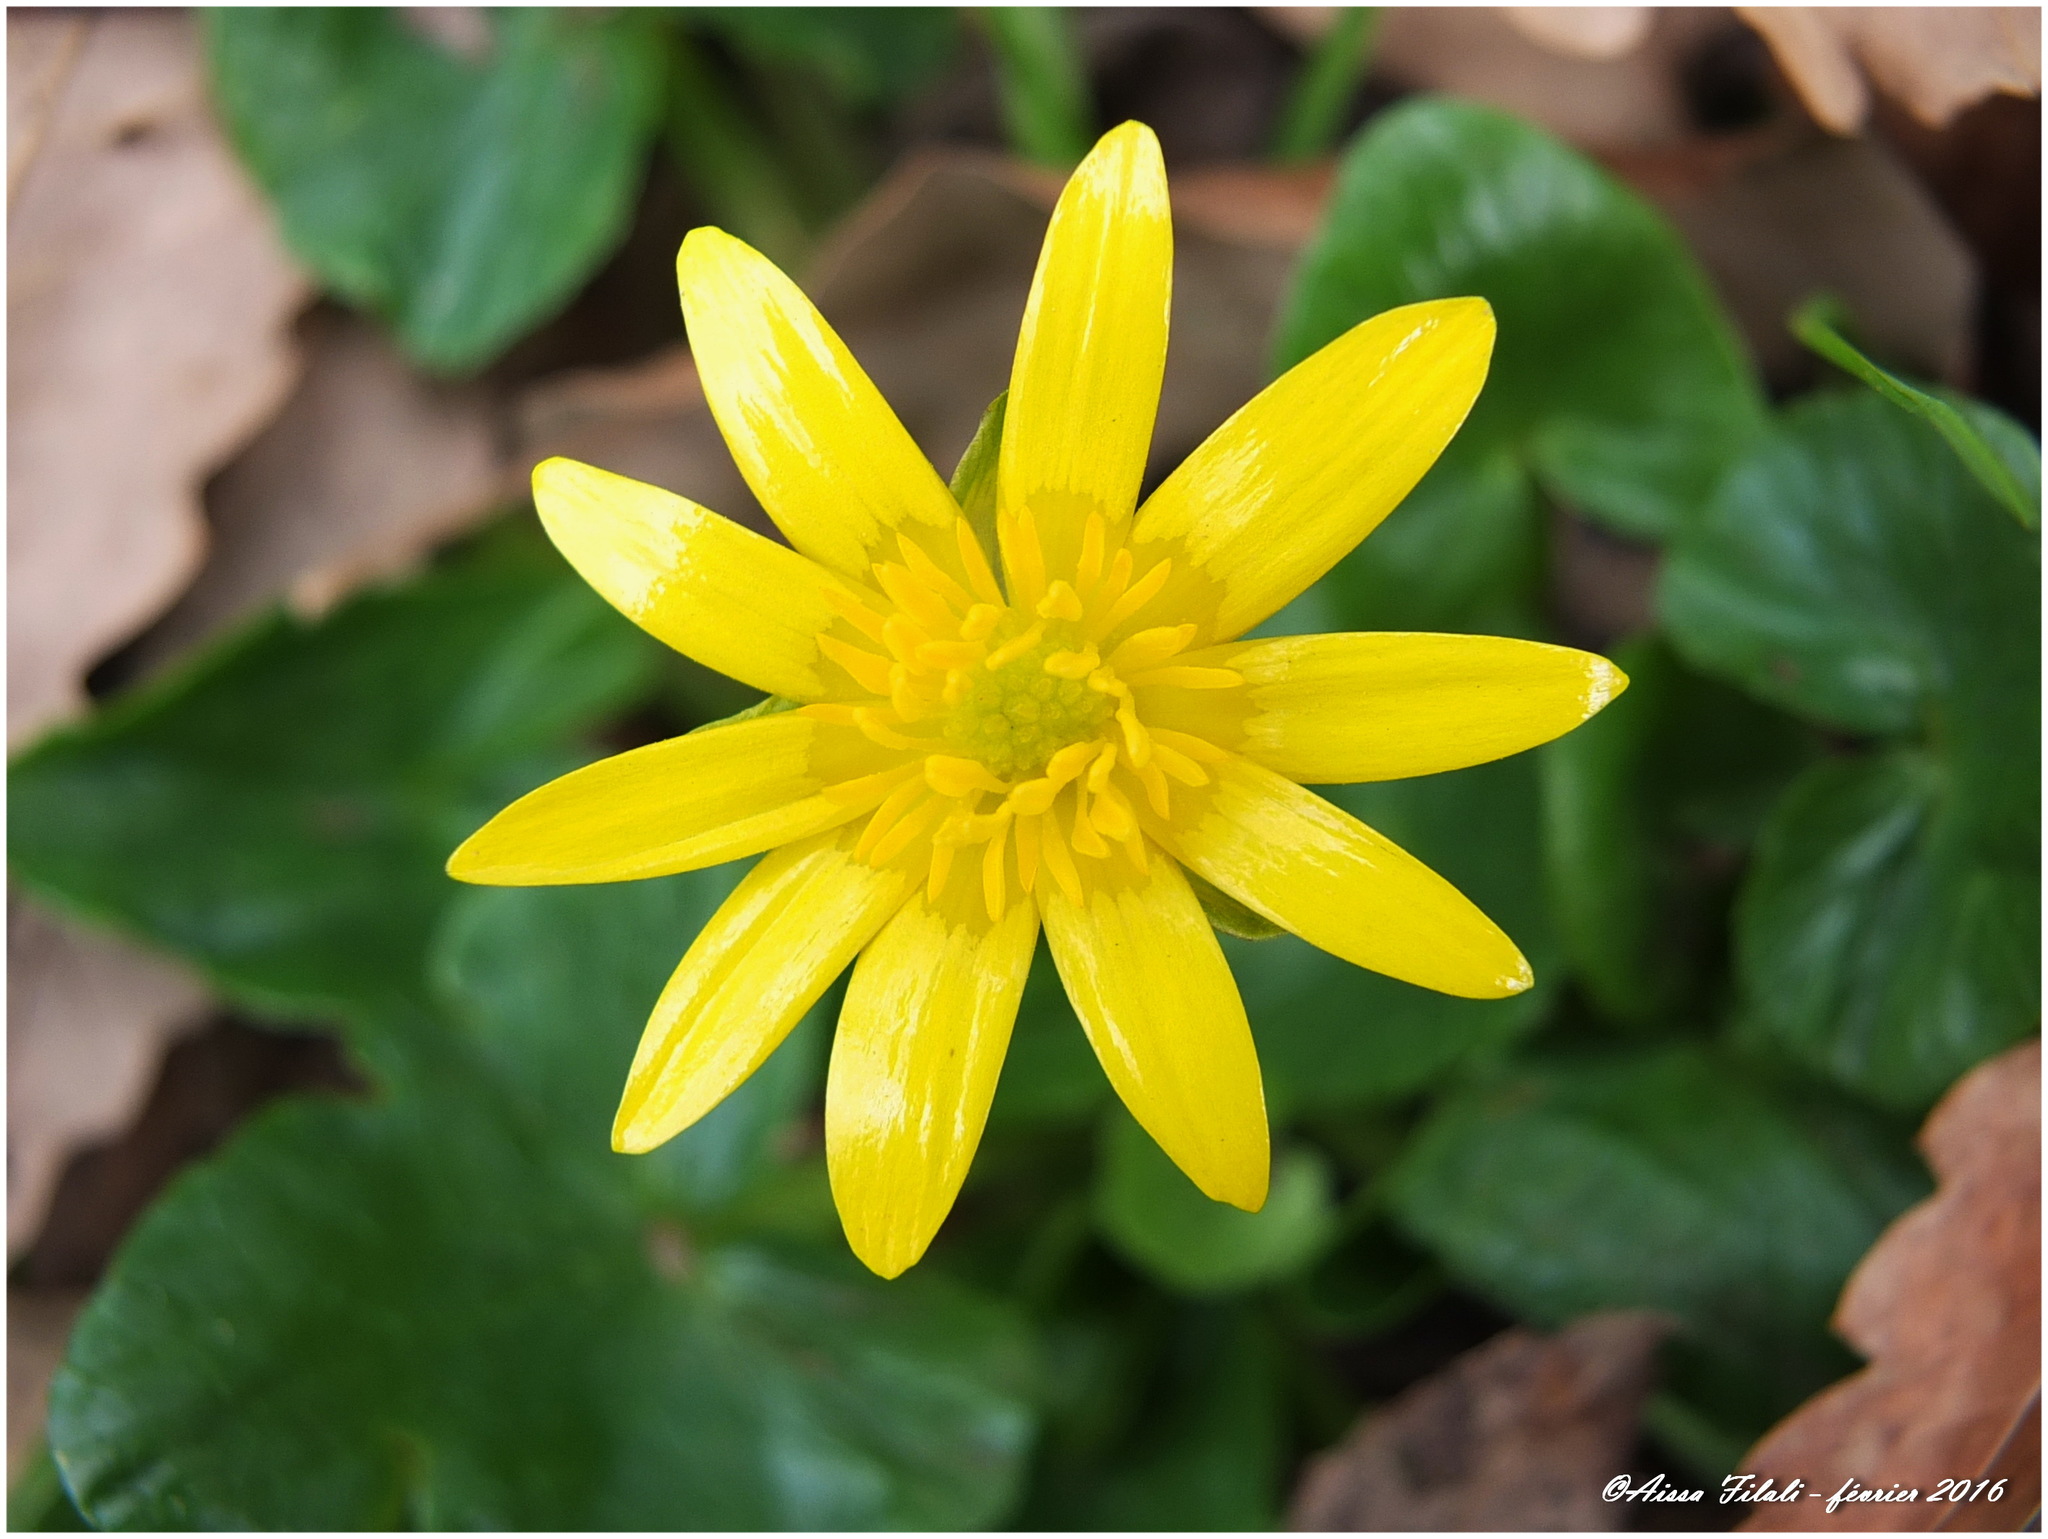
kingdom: Plantae
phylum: Tracheophyta
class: Magnoliopsida
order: Ranunculales
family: Ranunculaceae
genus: Ficaria
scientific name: Ficaria verna
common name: Lesser celandine
